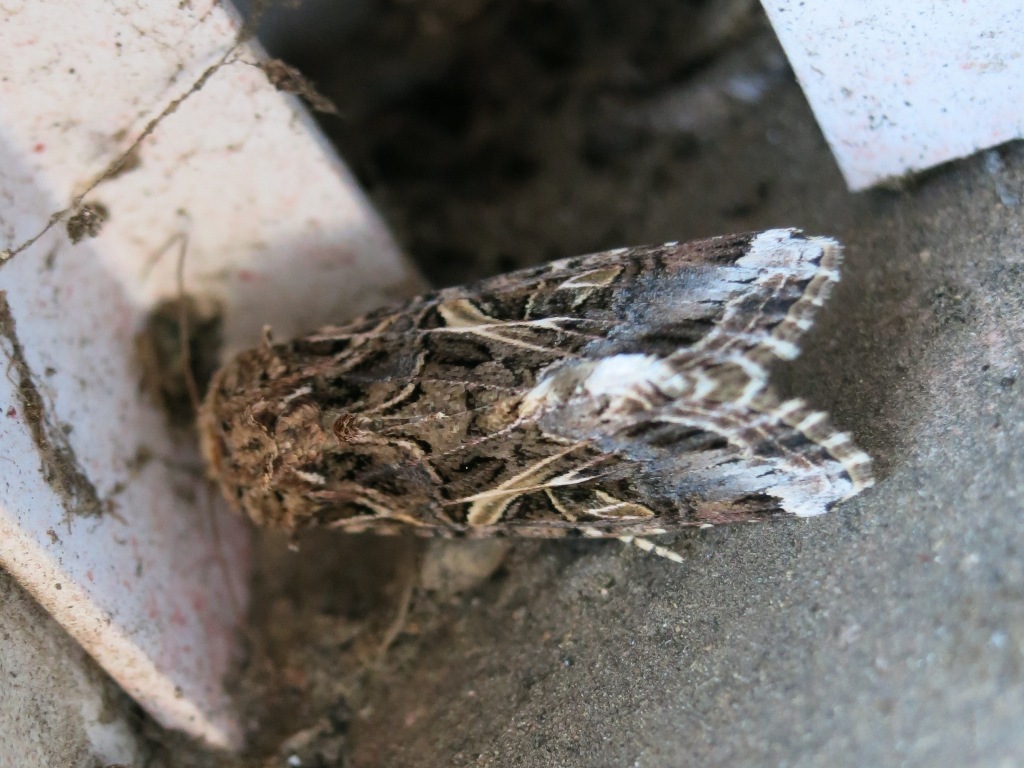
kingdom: Animalia
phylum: Arthropoda
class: Insecta
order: Lepidoptera
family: Noctuidae
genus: Spodoptera
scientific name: Spodoptera ornithogalli
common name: Yellow-striped armyworm
